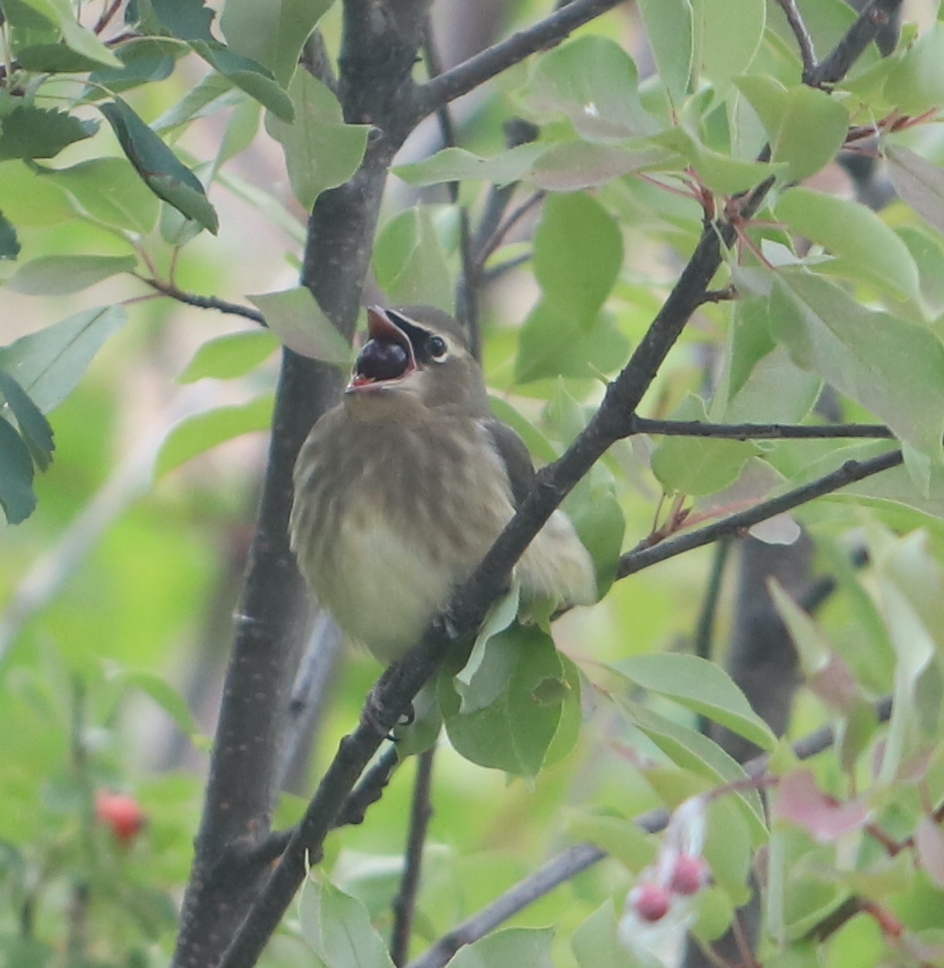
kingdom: Animalia
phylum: Chordata
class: Aves
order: Passeriformes
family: Bombycillidae
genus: Bombycilla
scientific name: Bombycilla cedrorum
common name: Cedar waxwing
